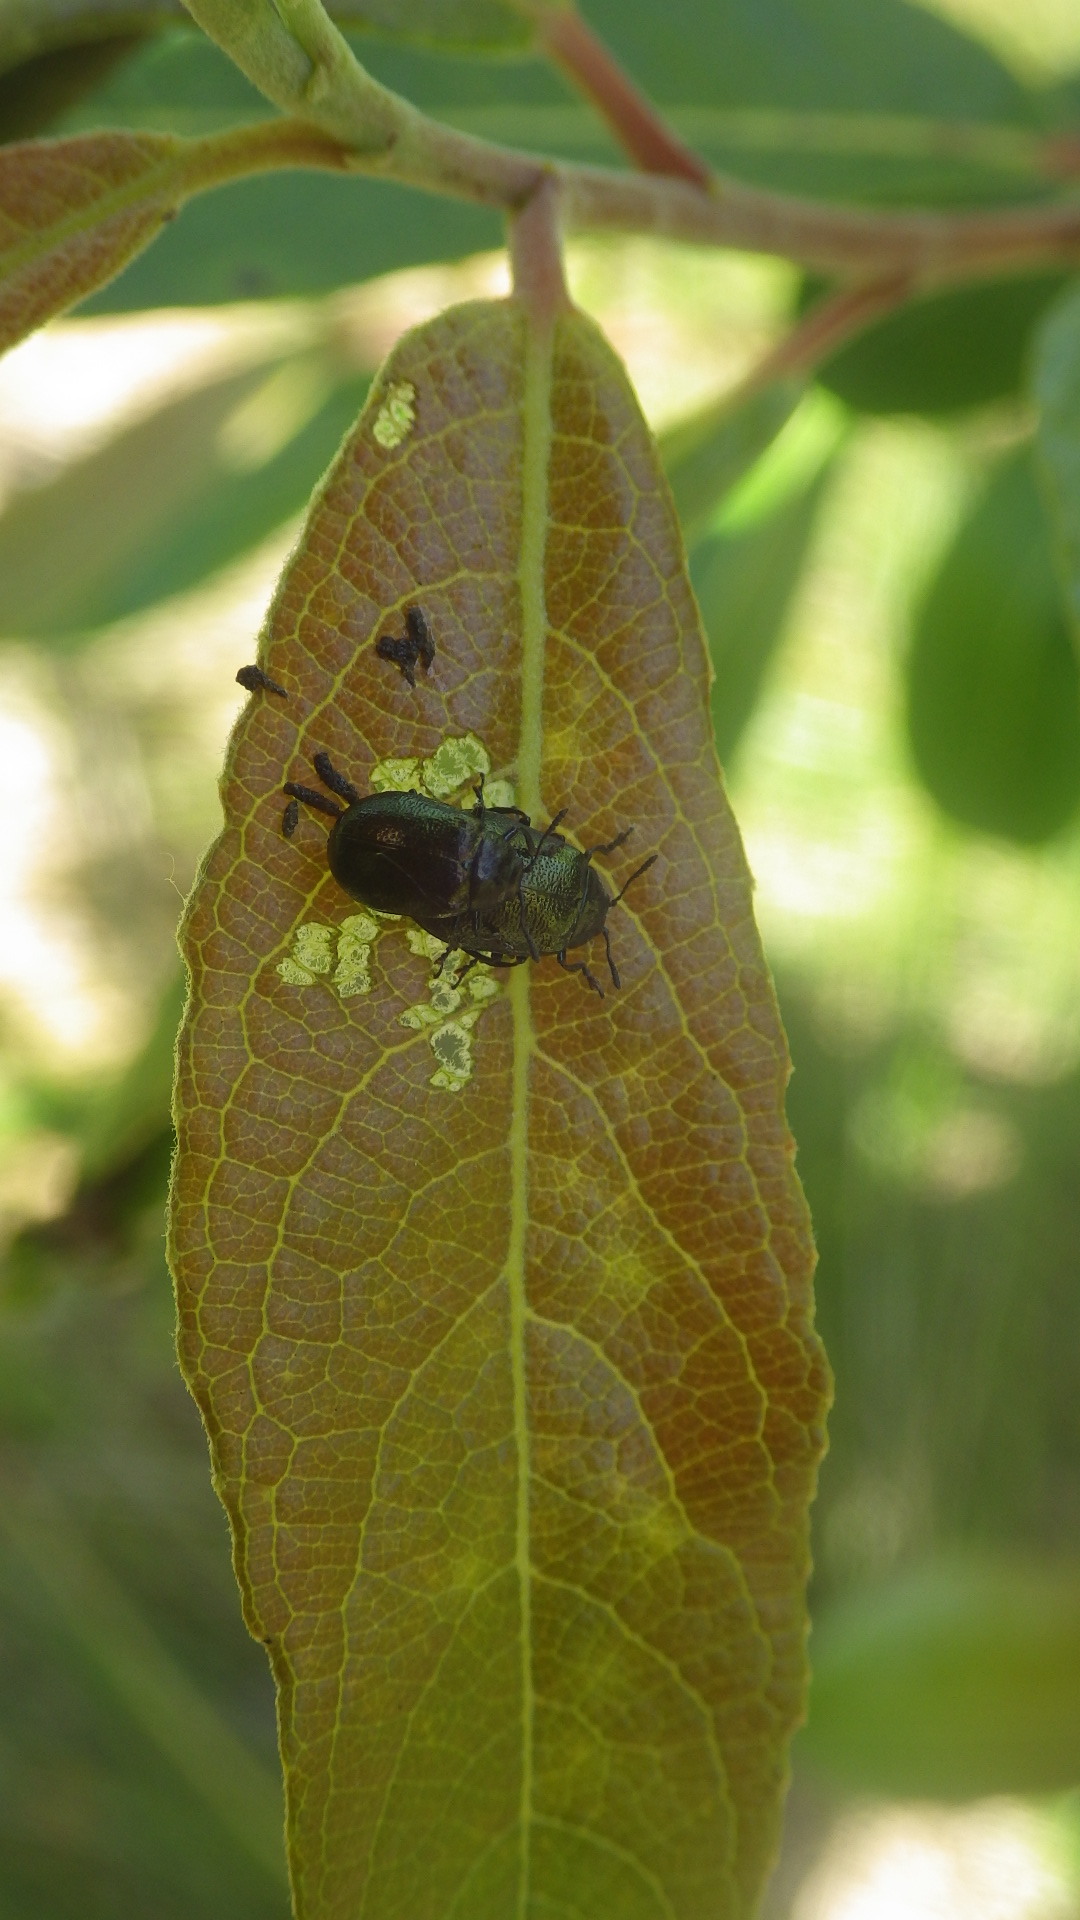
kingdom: Animalia
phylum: Arthropoda
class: Insecta
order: Coleoptera
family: Chrysomelidae
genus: Plagiodera
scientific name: Plagiodera californica
